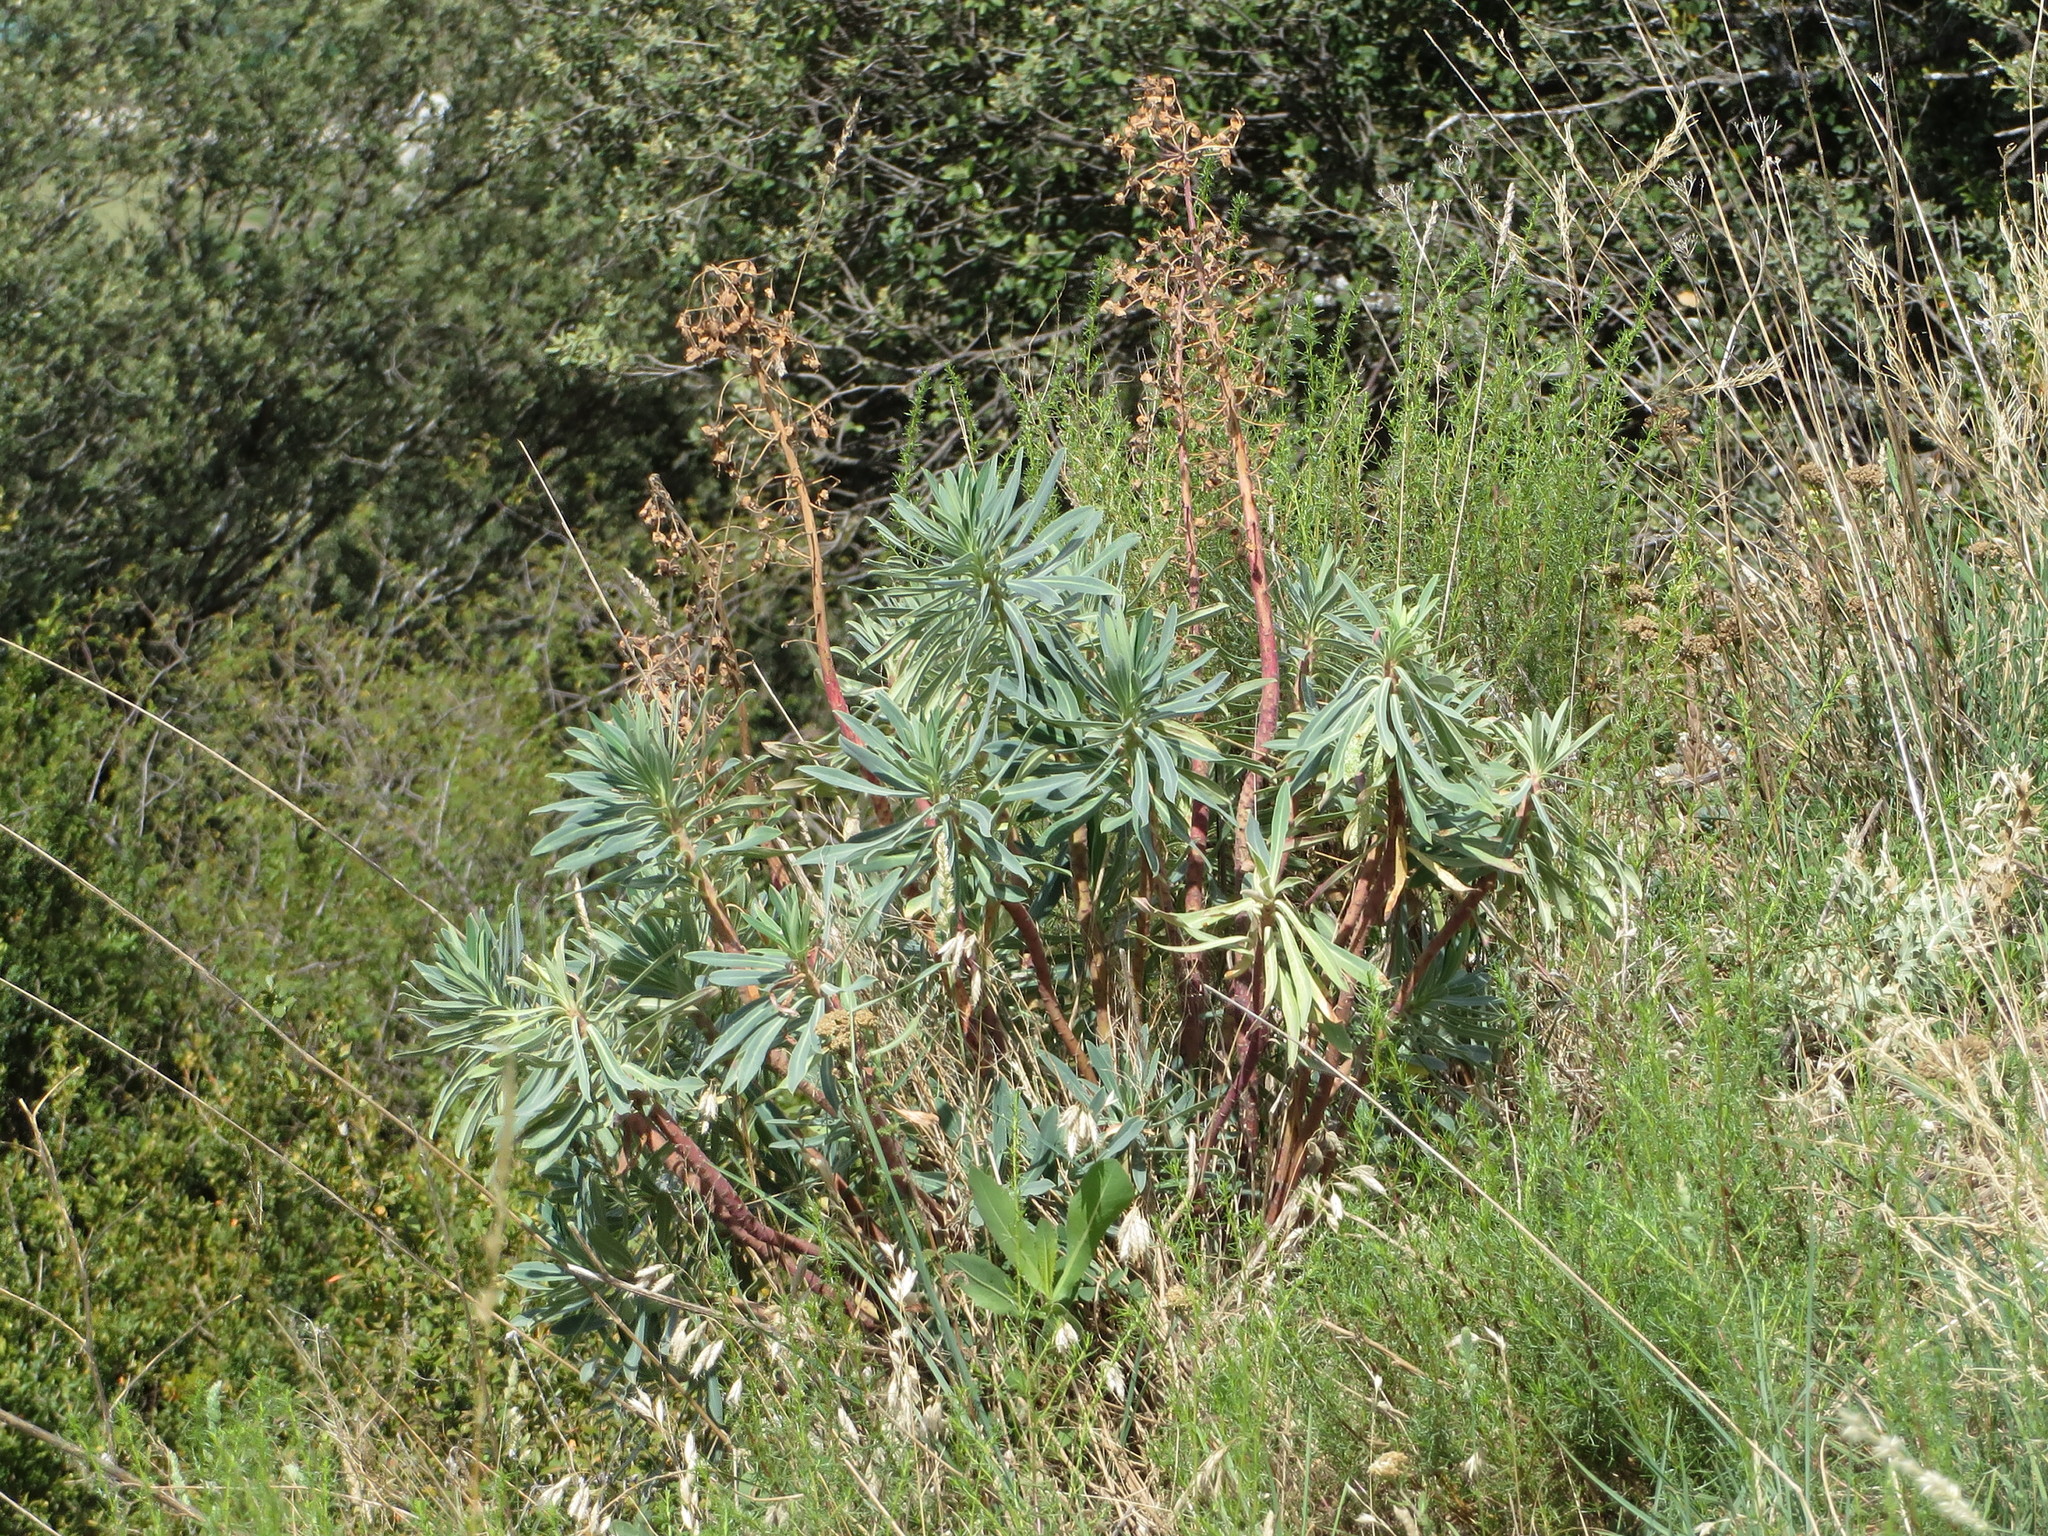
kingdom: Plantae
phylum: Tracheophyta
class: Magnoliopsida
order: Malpighiales
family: Euphorbiaceae
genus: Euphorbia
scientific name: Euphorbia characias
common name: Mediterranean spurge
